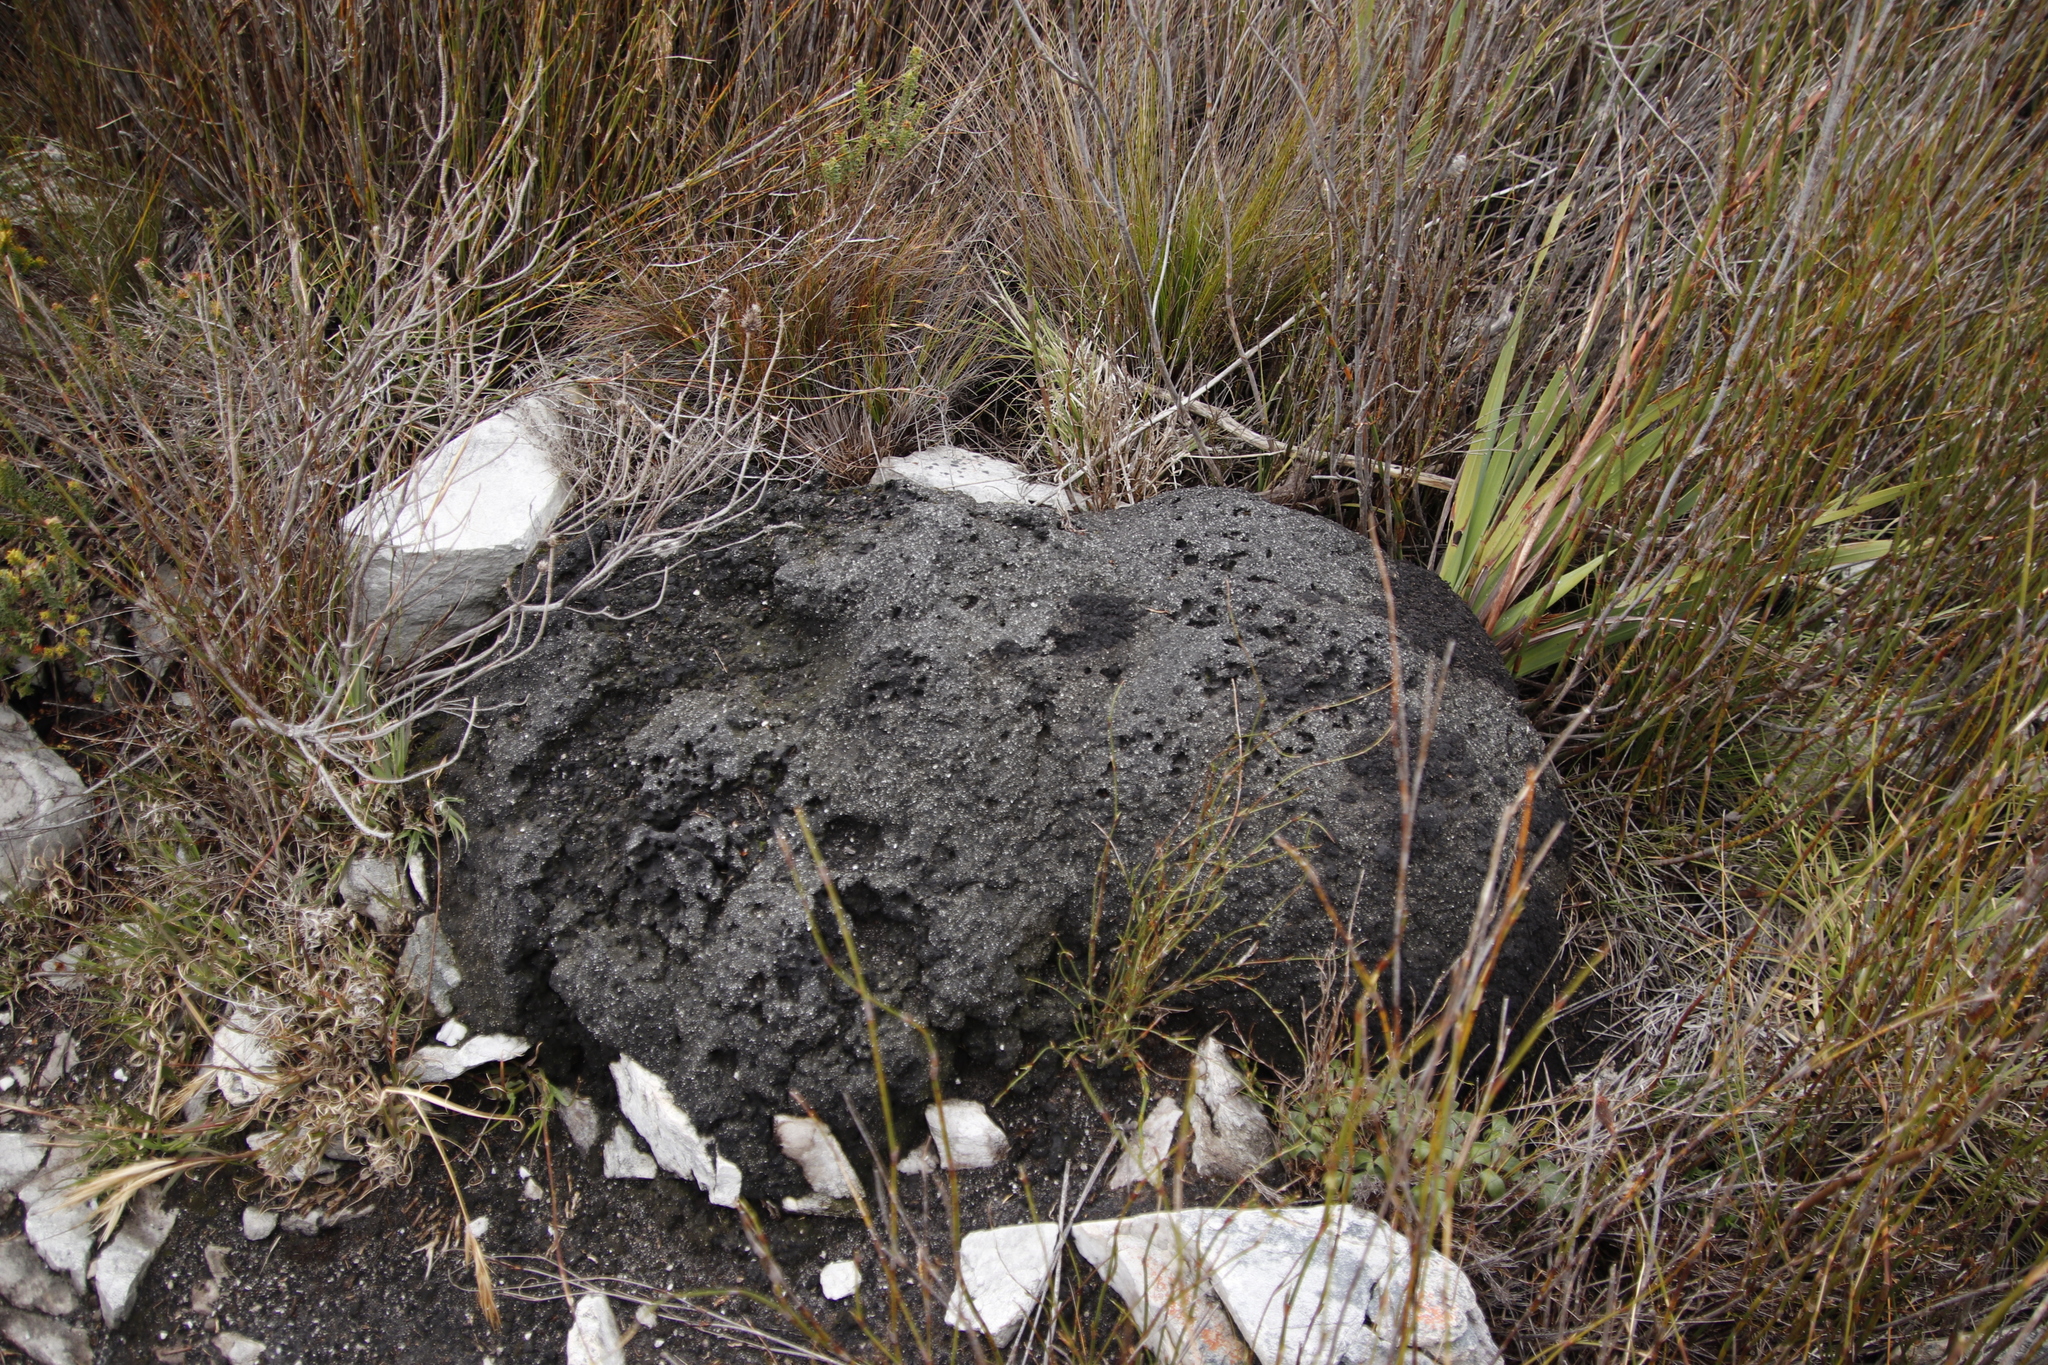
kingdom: Animalia
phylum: Arthropoda
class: Insecta
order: Blattodea
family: Termitidae
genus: Amitermes
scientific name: Amitermes hastatus
